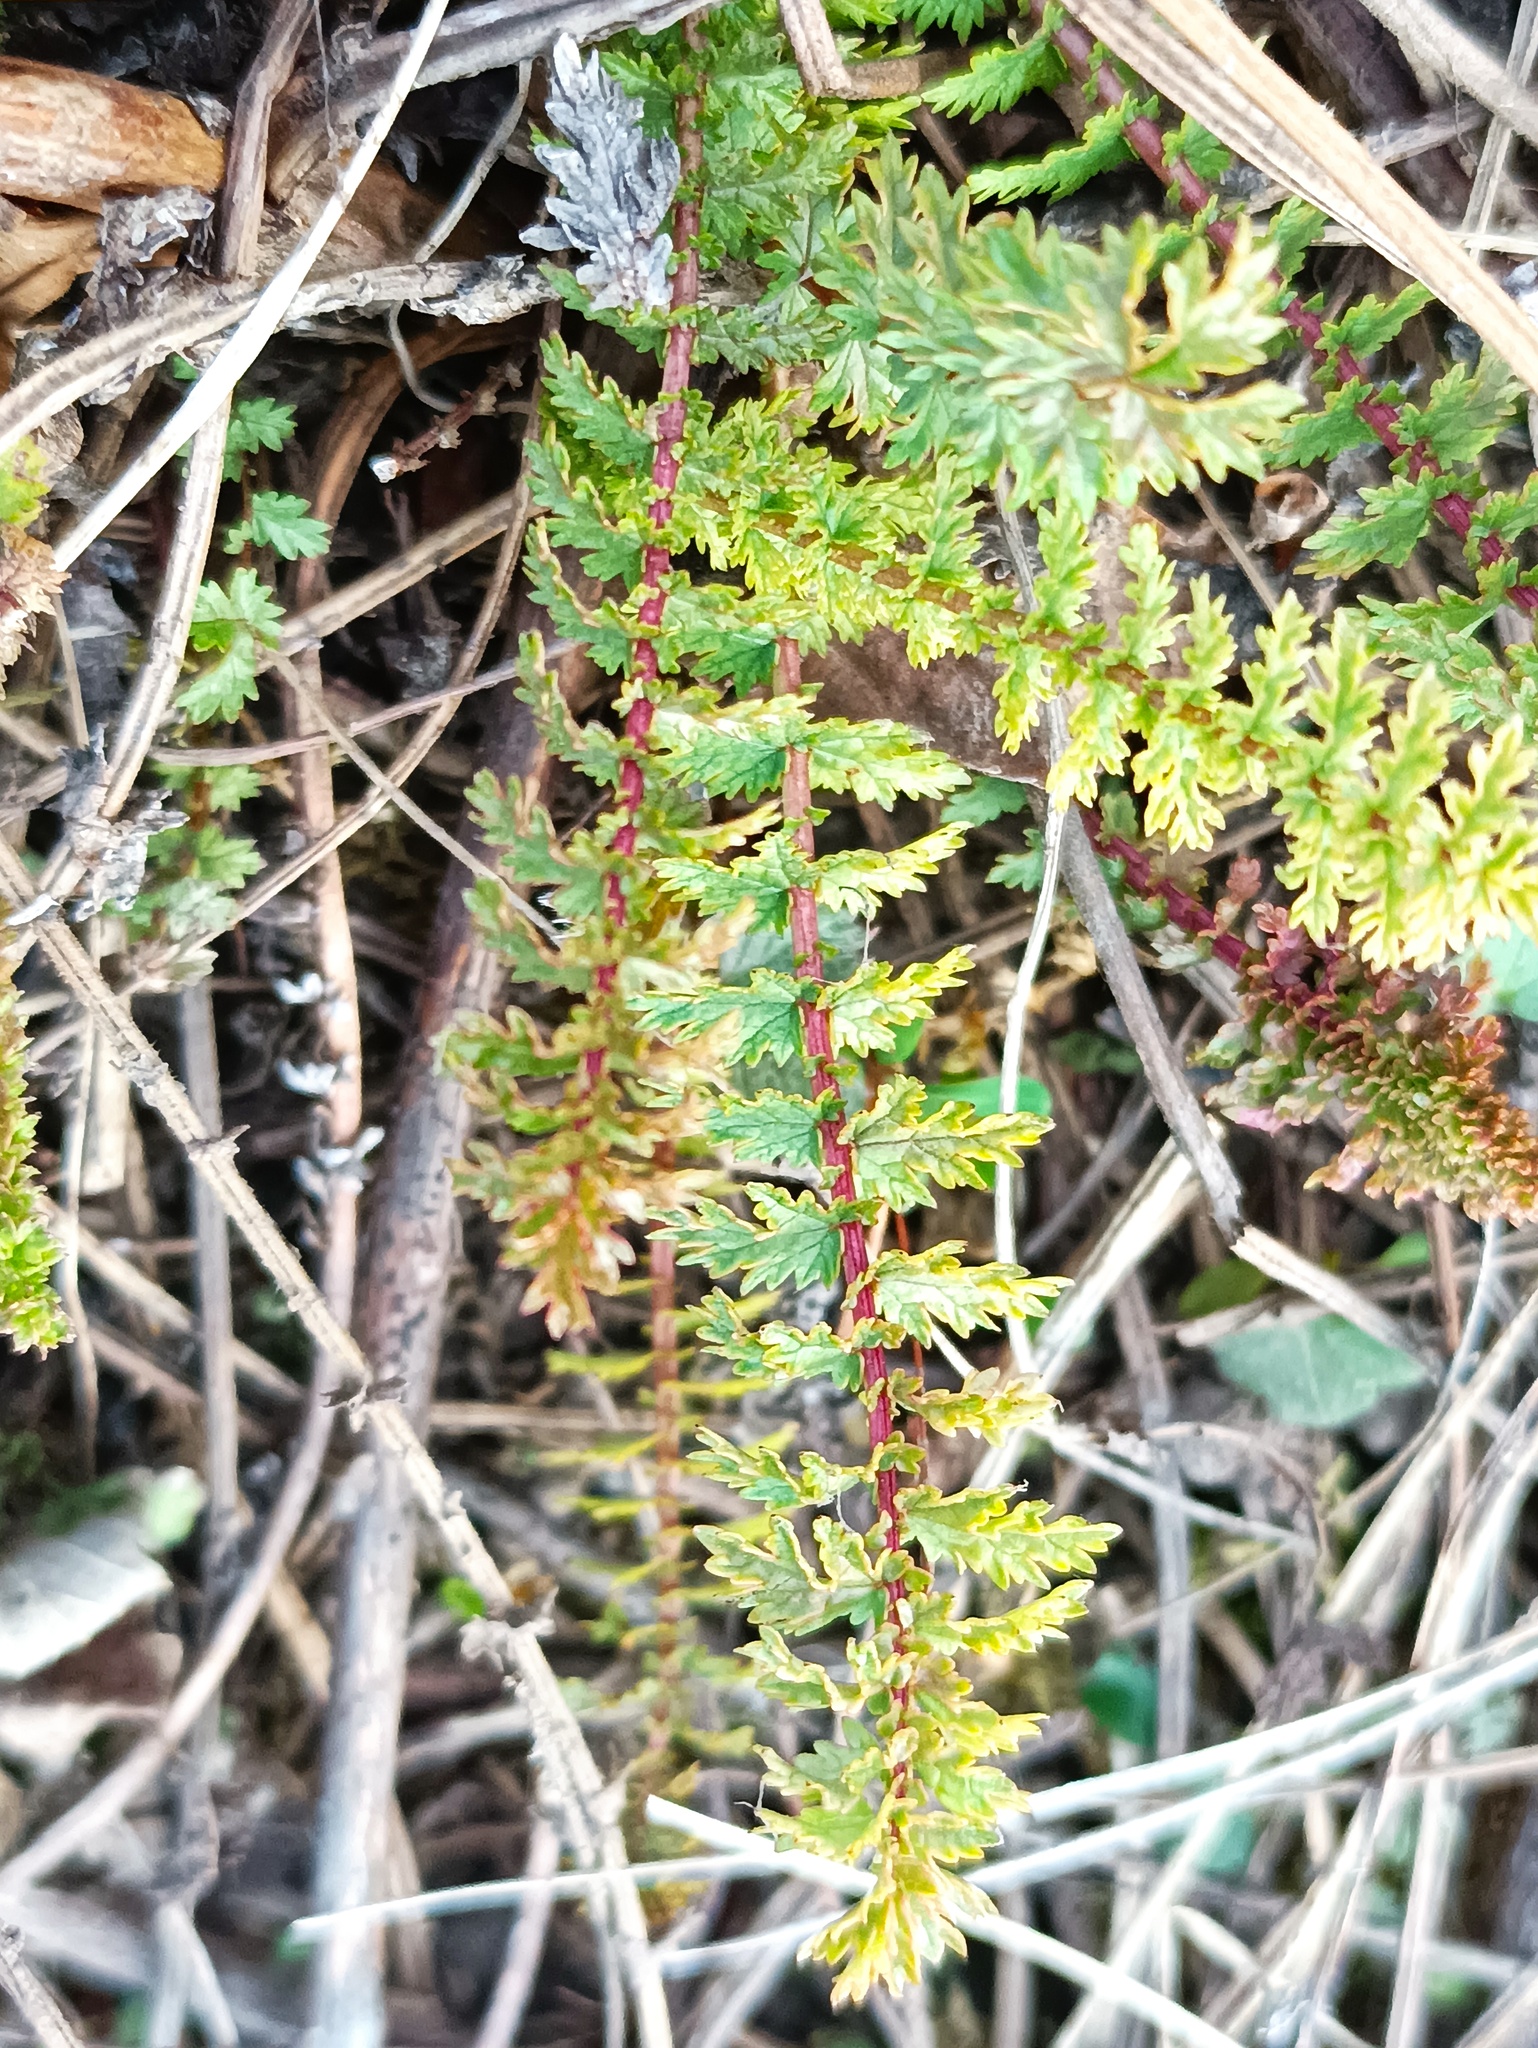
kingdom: Plantae
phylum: Tracheophyta
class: Magnoliopsida
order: Rosales
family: Rosaceae
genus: Filipendula
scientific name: Filipendula vulgaris
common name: Dropwort
